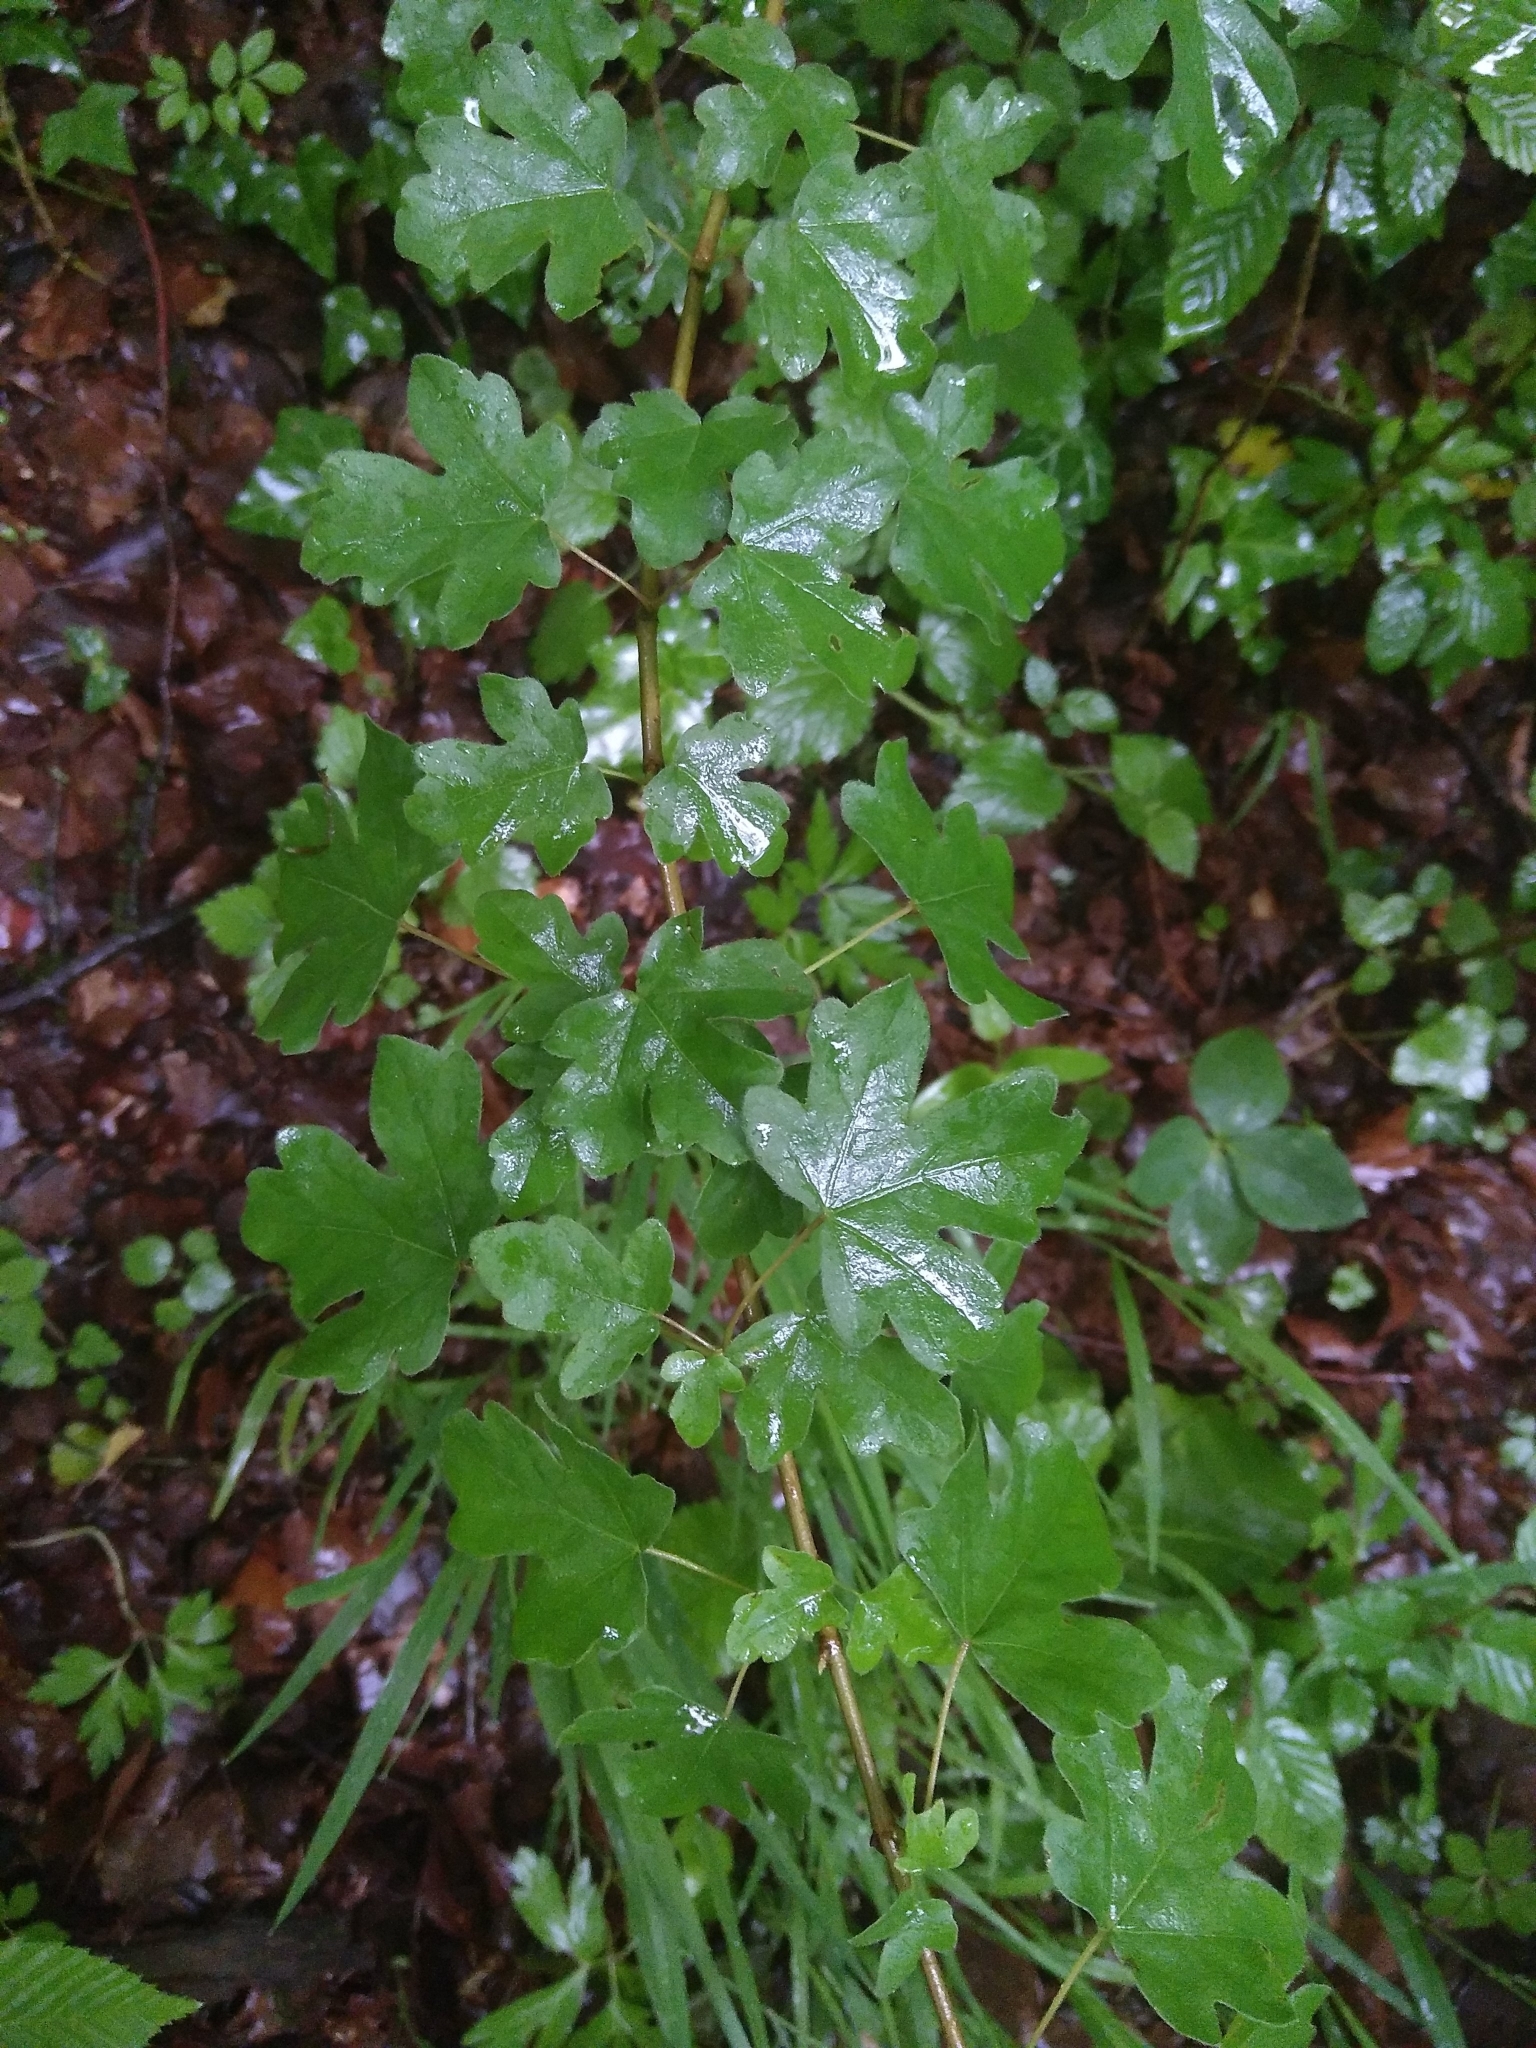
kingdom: Plantae
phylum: Tracheophyta
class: Magnoliopsida
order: Sapindales
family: Sapindaceae
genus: Acer
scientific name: Acer campestre
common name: Field maple
